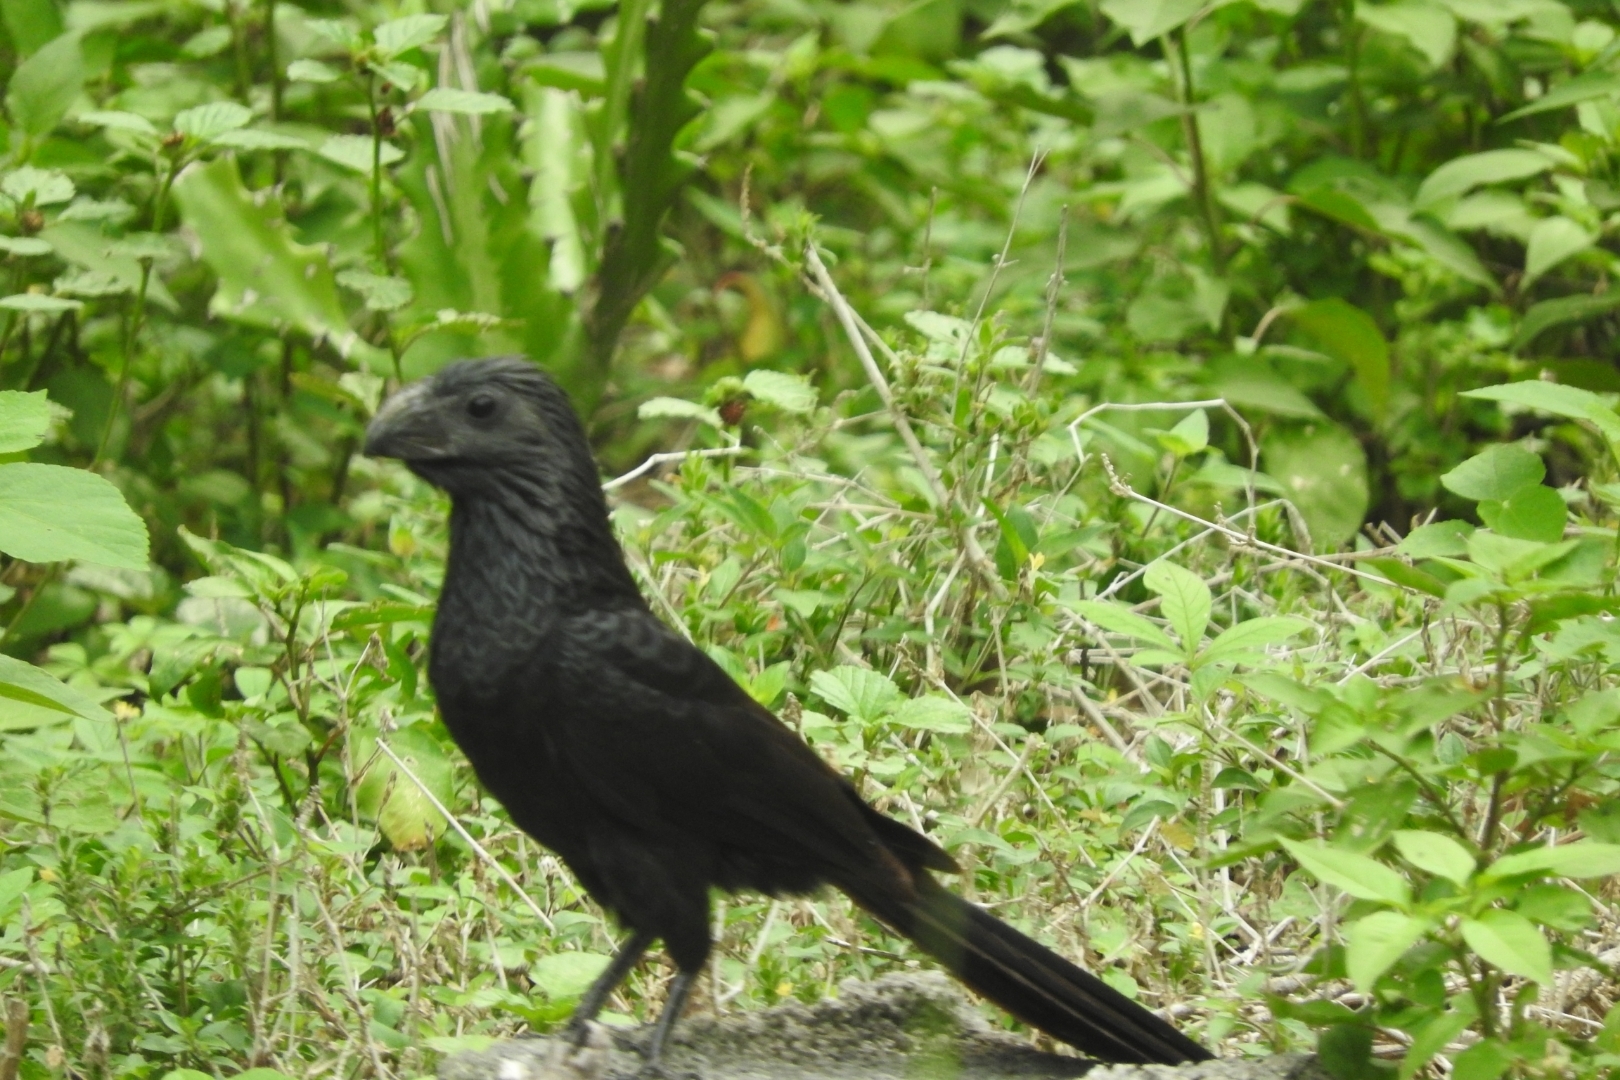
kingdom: Animalia
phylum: Chordata
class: Aves
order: Cuculiformes
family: Cuculidae
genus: Crotophaga
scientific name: Crotophaga sulcirostris
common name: Groove-billed ani
